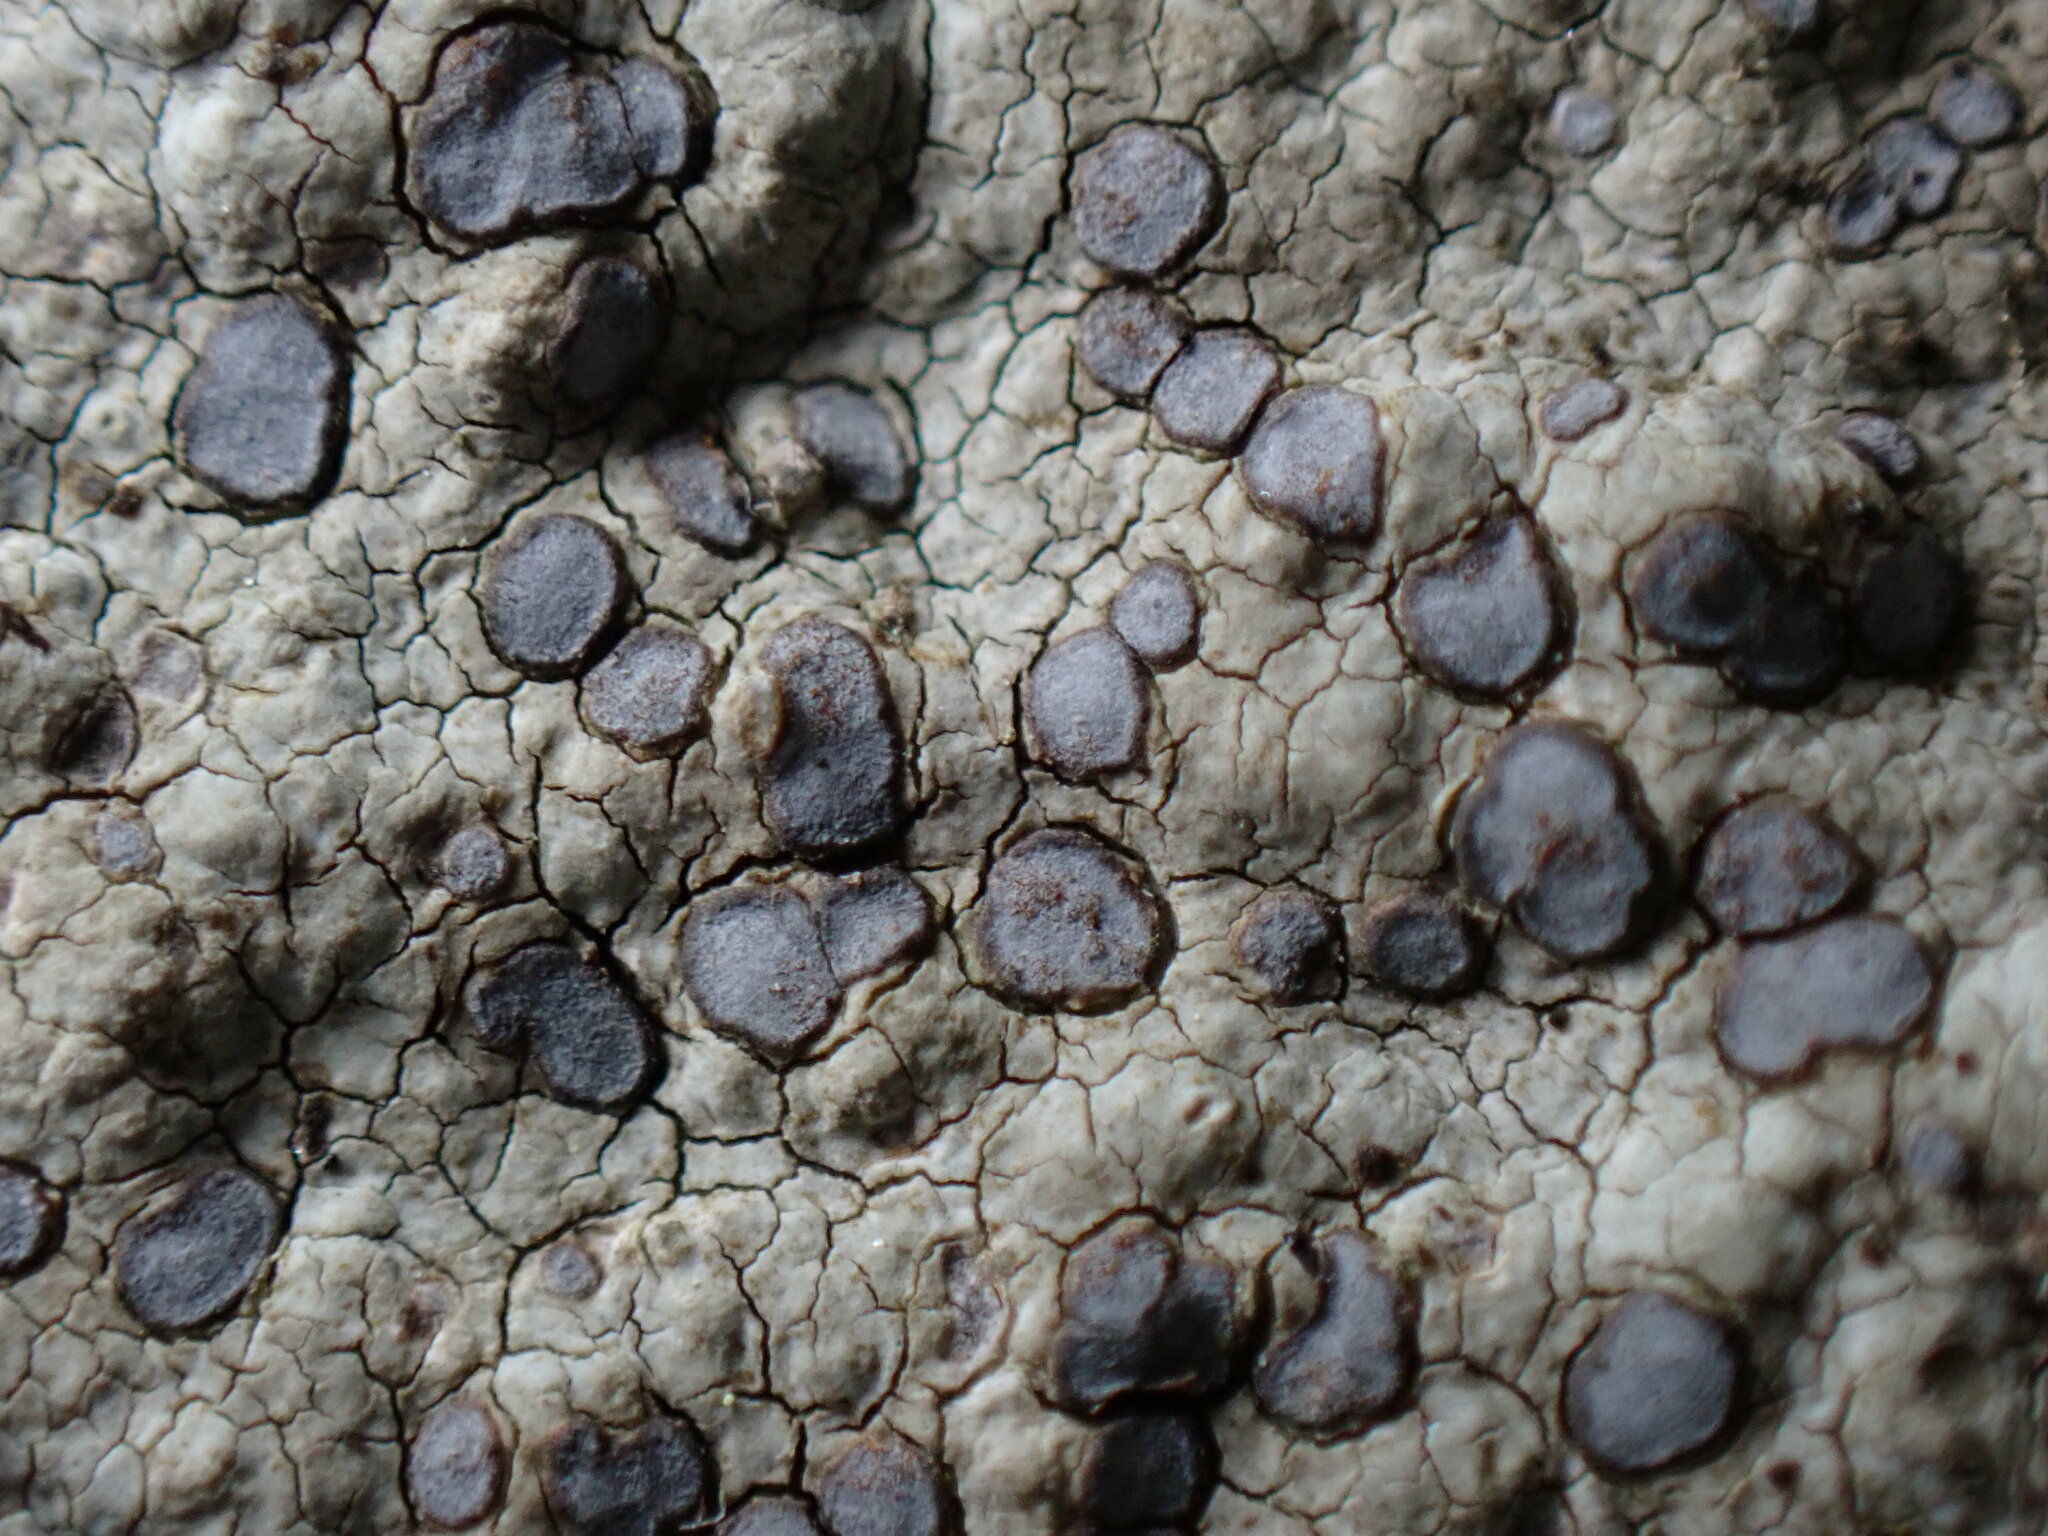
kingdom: Fungi
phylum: Ascomycota
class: Lecanoromycetes
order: Lecideales
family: Lecideaceae
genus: Porpidia
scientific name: Porpidia albocaerulescens
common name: Smokey-eyed boulder lichen
